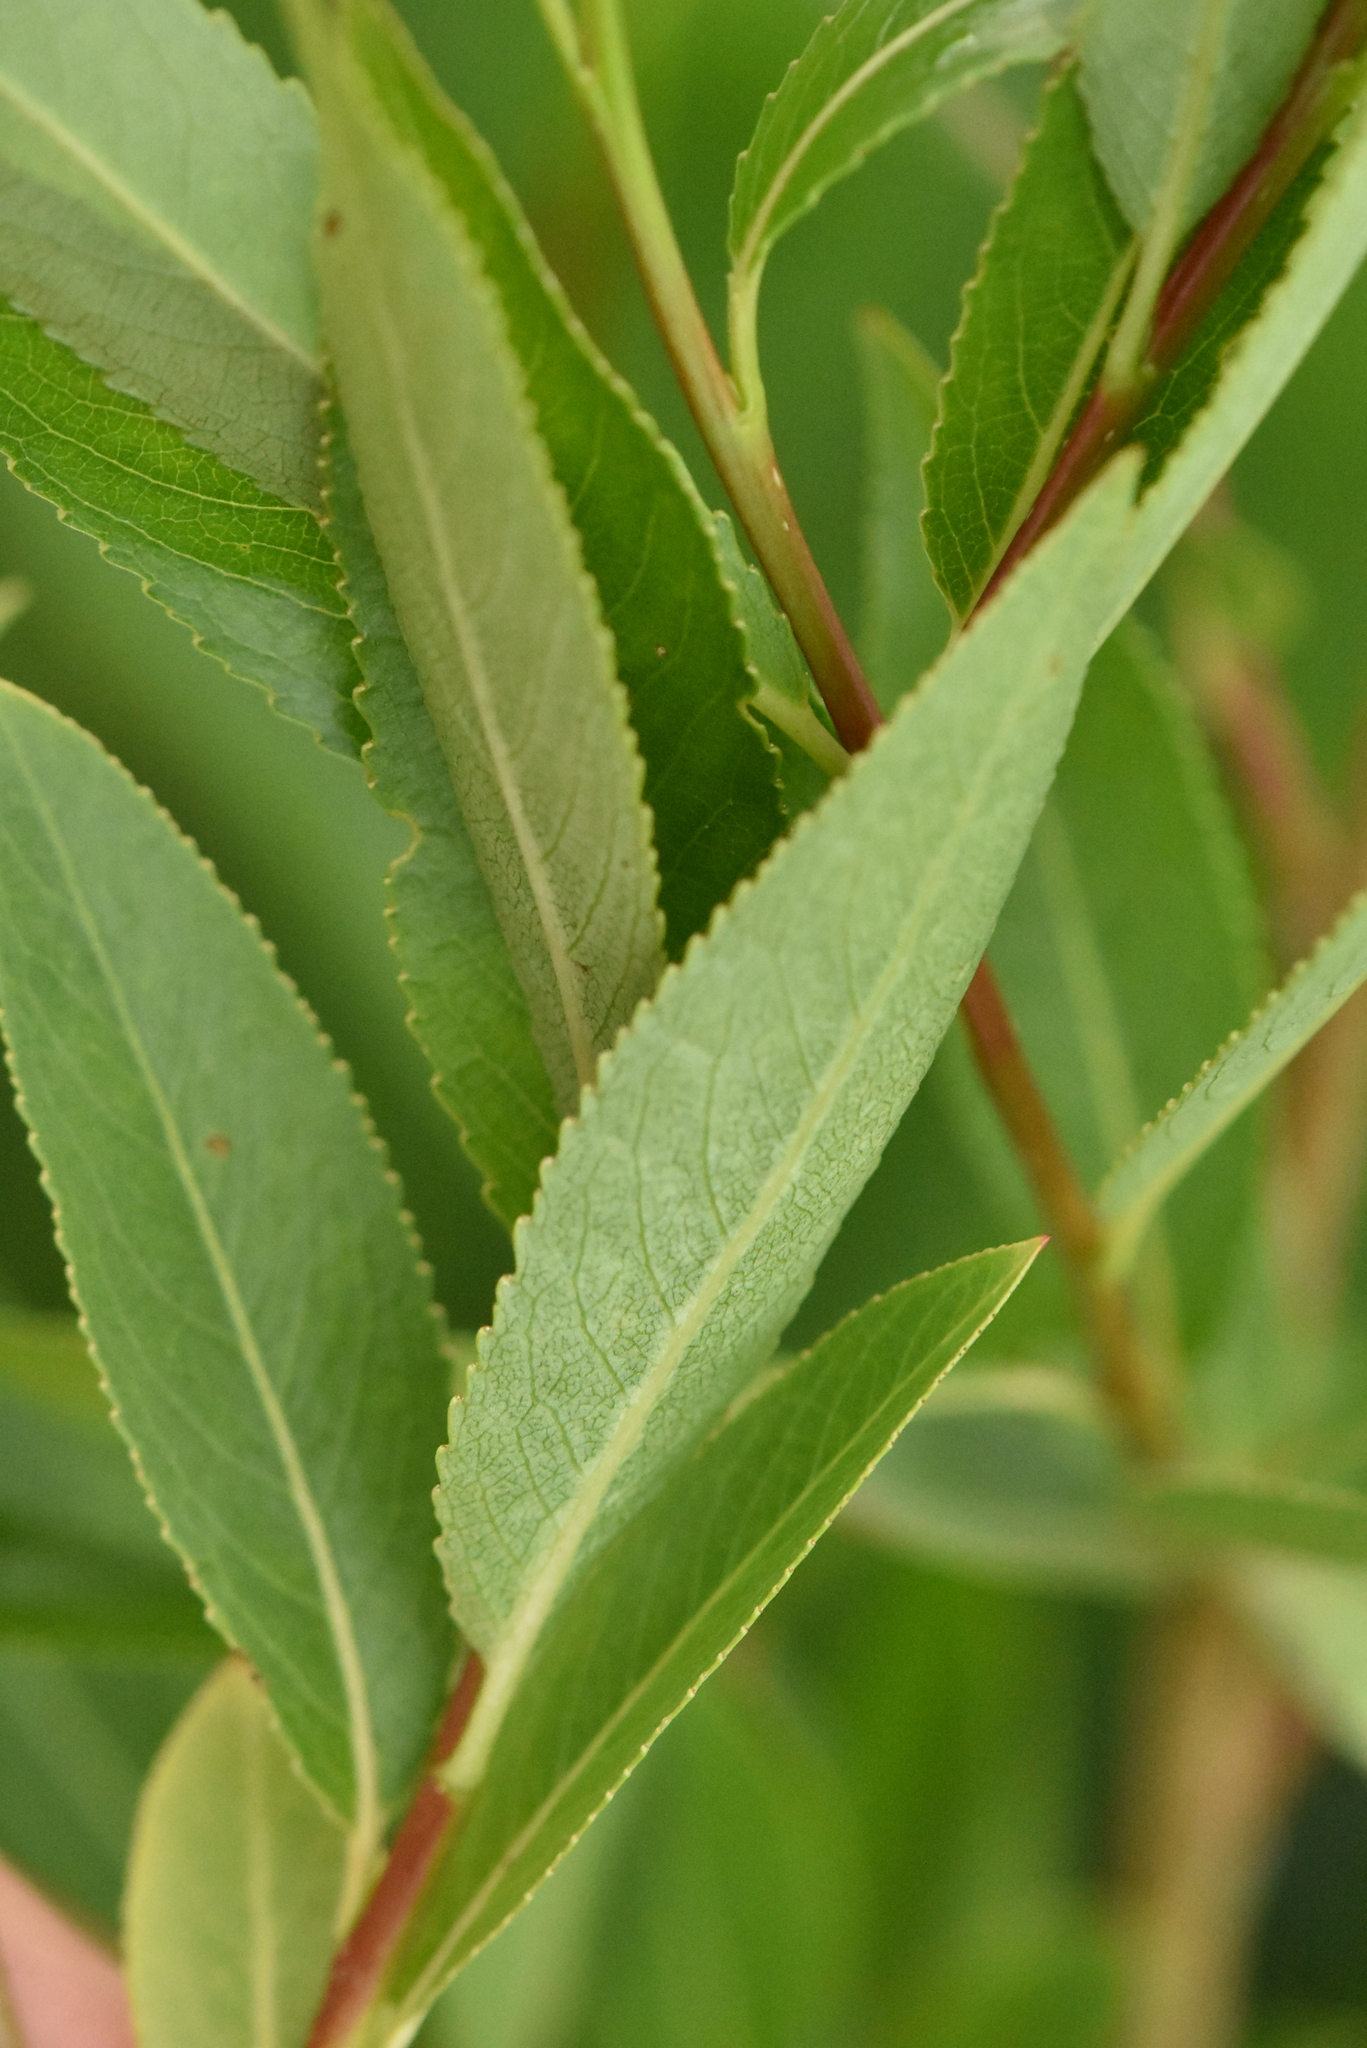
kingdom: Plantae
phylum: Tracheophyta
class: Magnoliopsida
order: Malpighiales
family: Salicaceae
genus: Salix
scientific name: Salix triandra
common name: Almond willow
